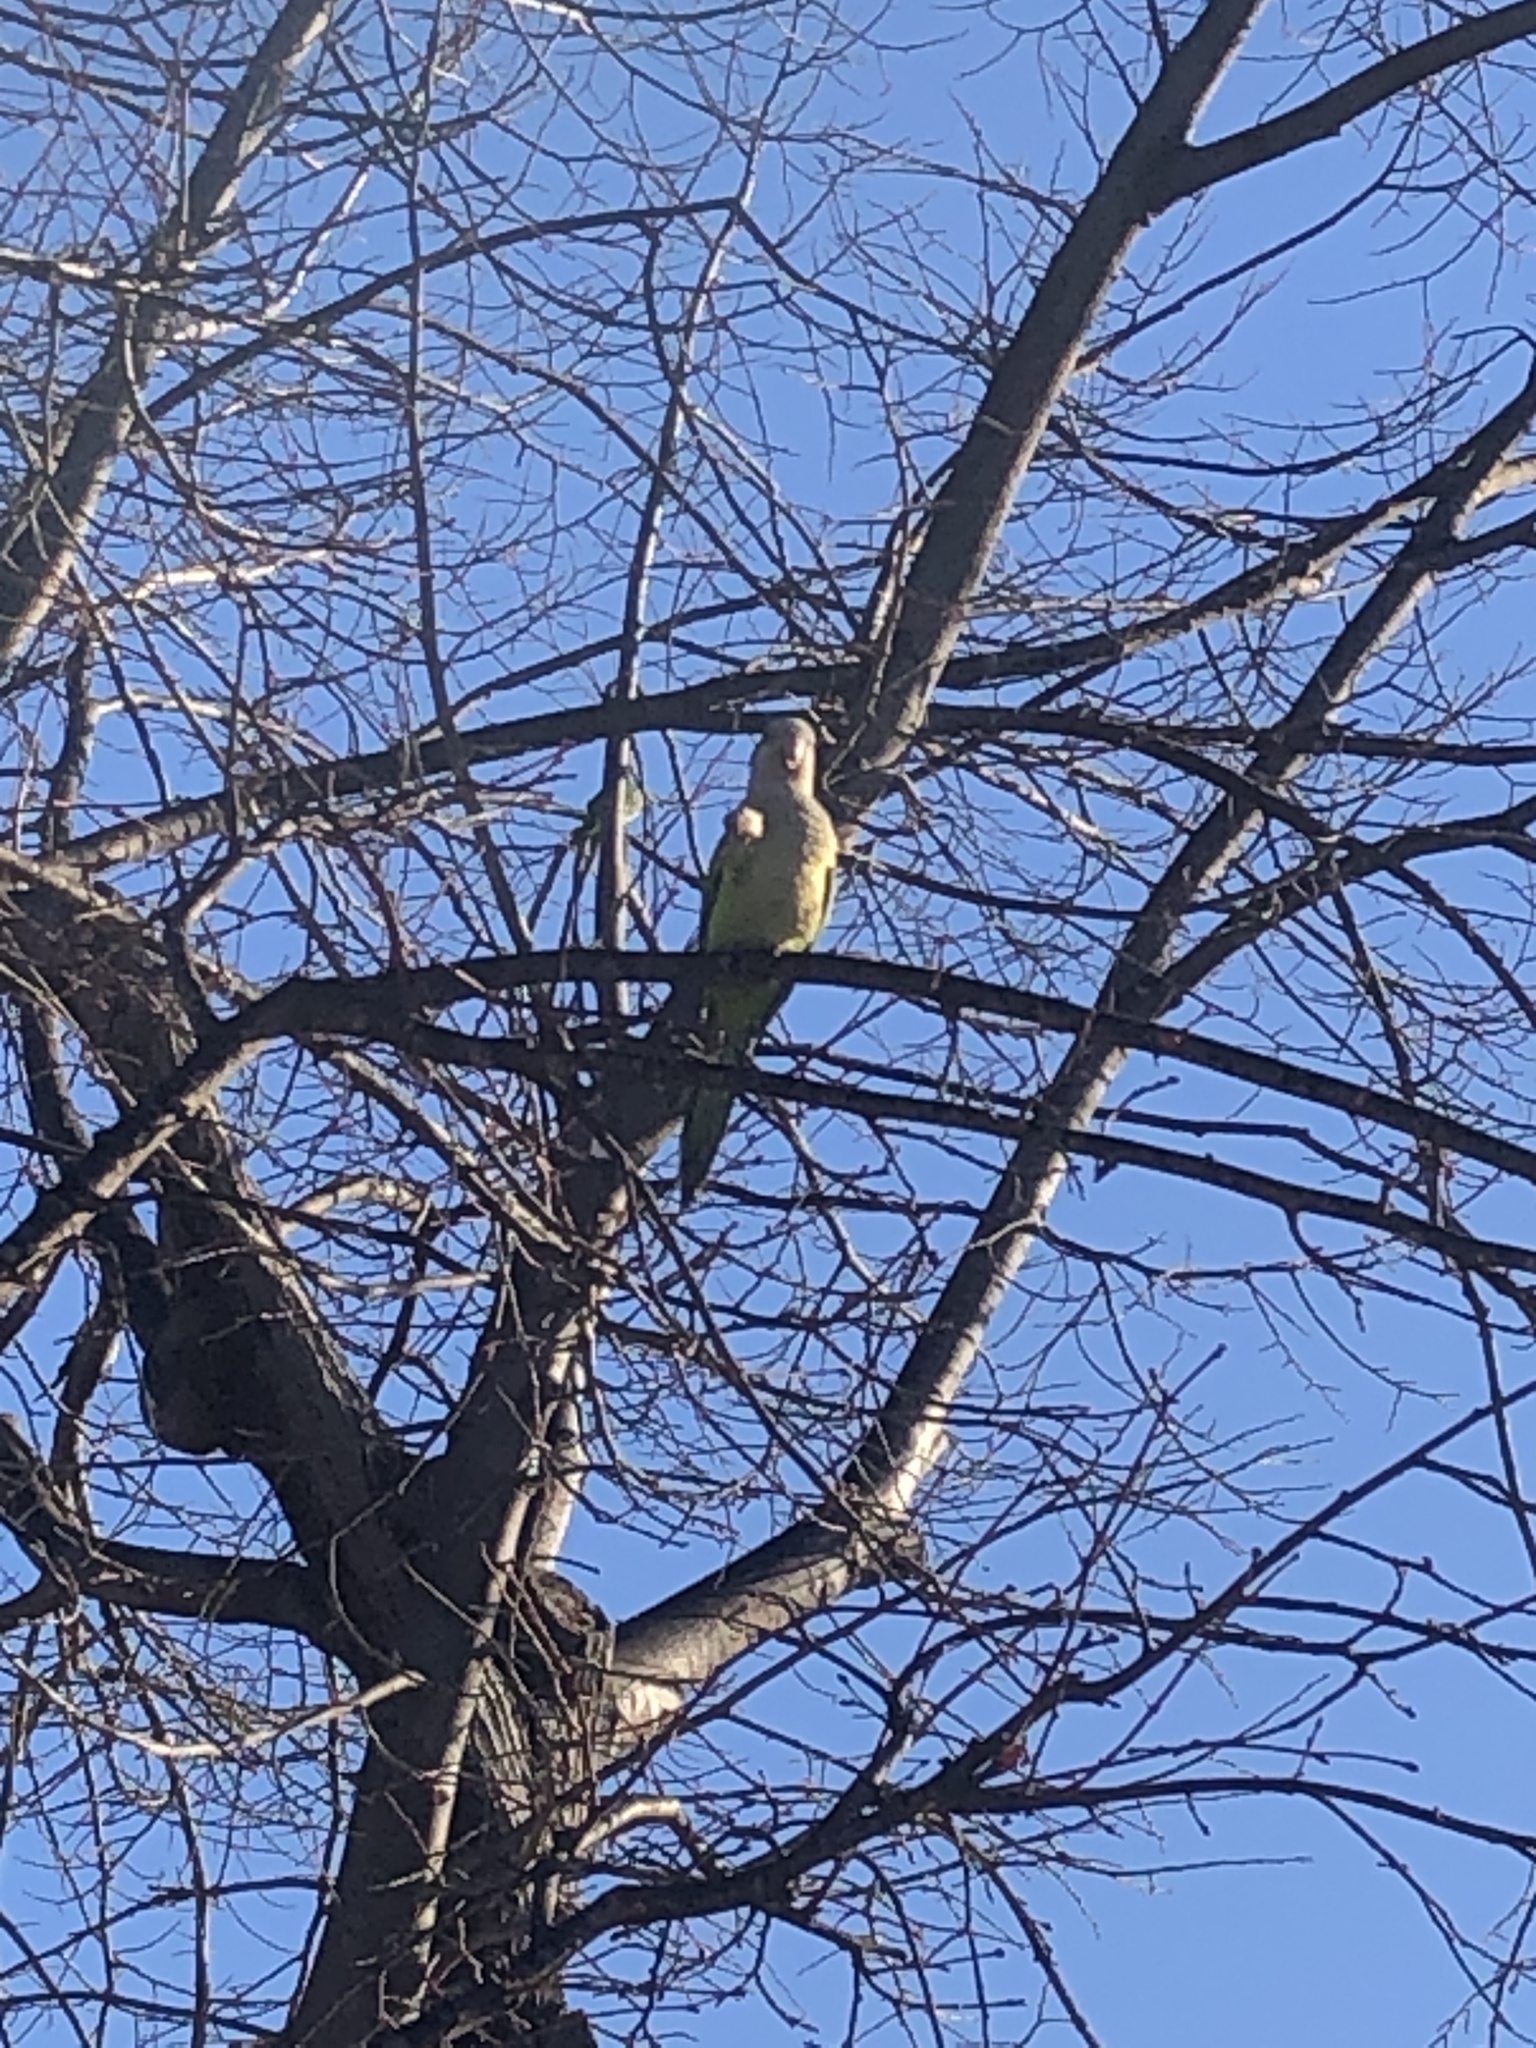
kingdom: Animalia
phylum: Chordata
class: Aves
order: Psittaciformes
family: Psittacidae
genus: Myiopsitta
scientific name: Myiopsitta monachus
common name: Monk parakeet
